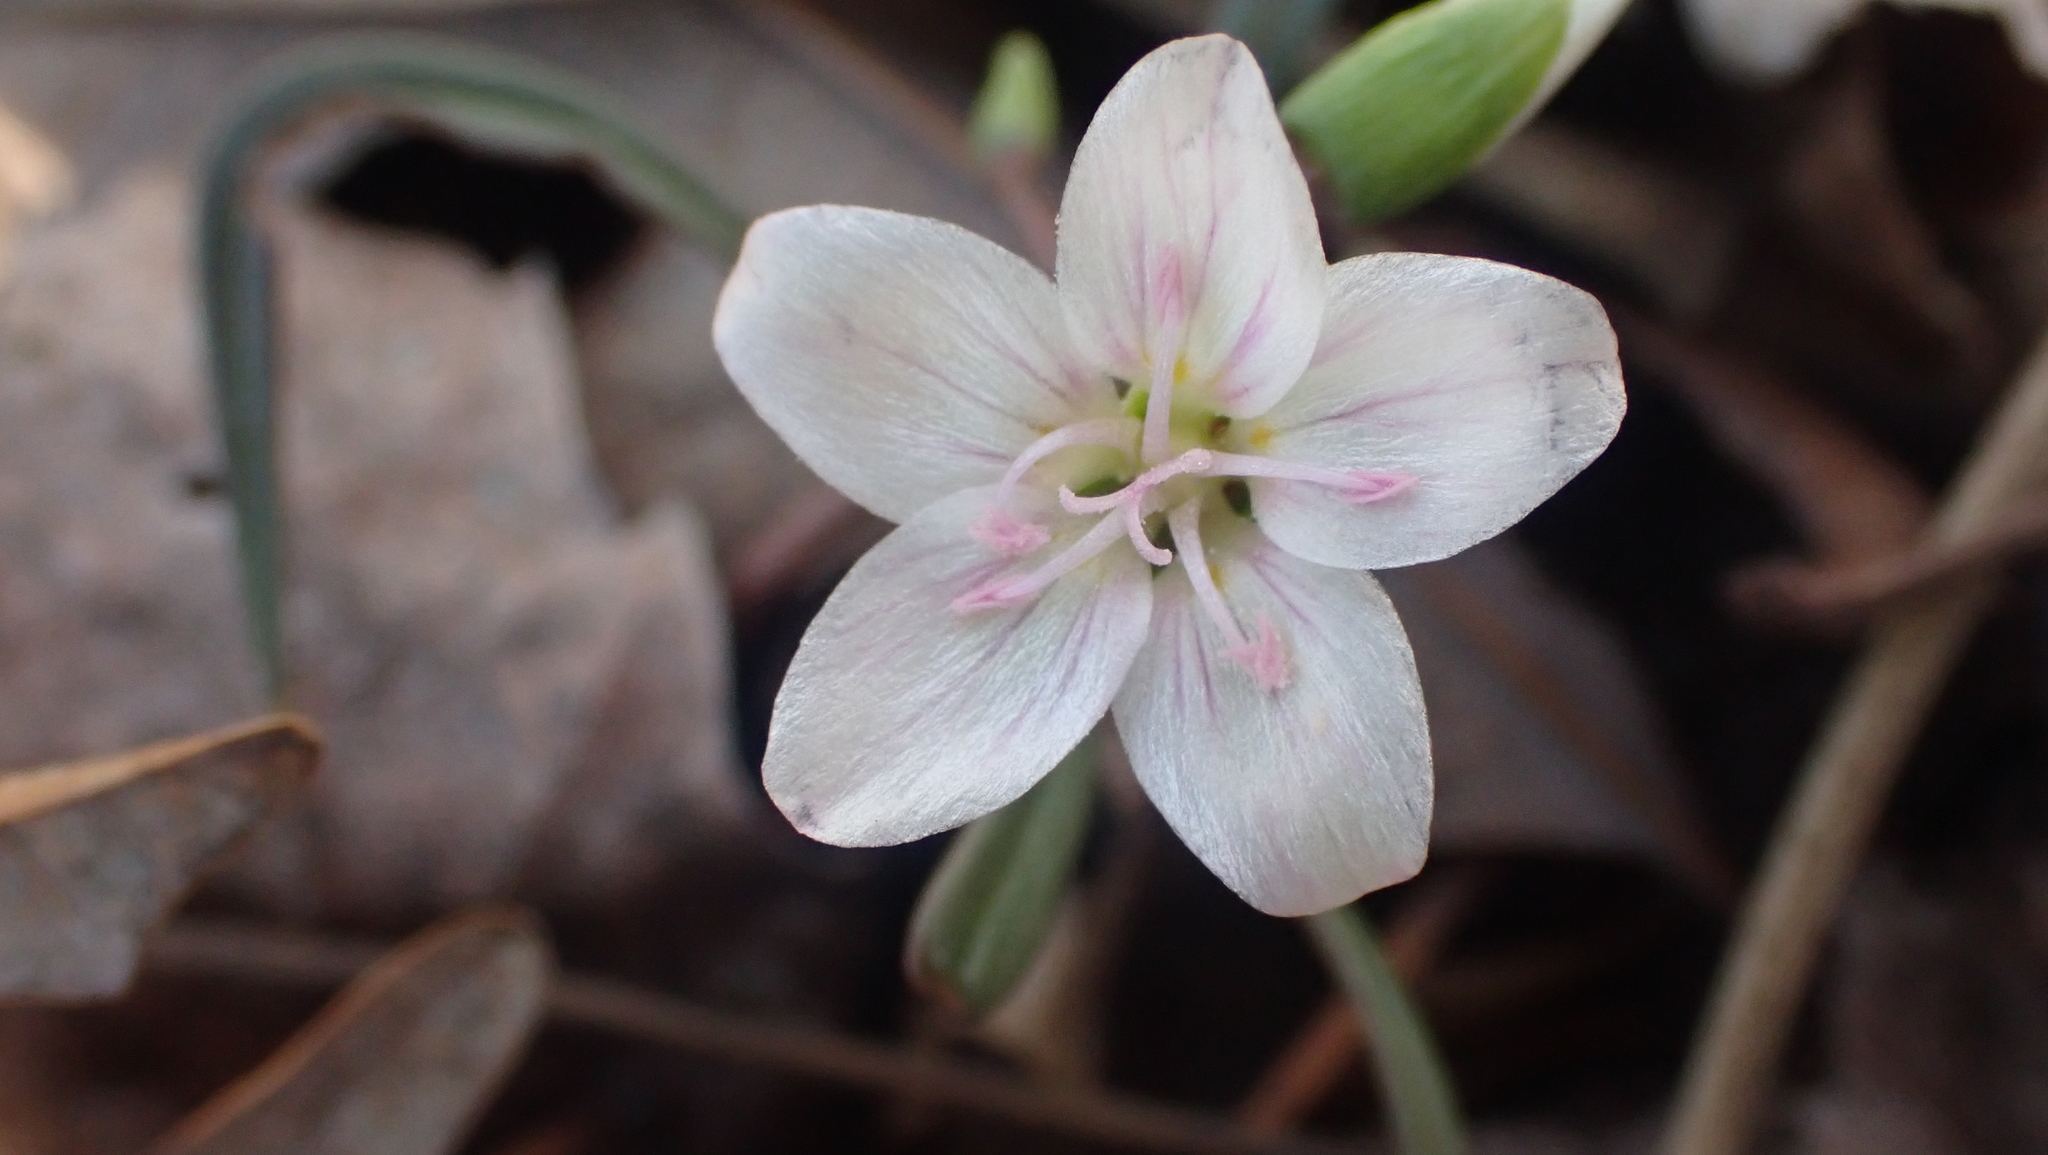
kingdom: Plantae
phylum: Tracheophyta
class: Magnoliopsida
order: Caryophyllales
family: Montiaceae
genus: Claytonia
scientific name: Claytonia virginica
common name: Virginia springbeauty
